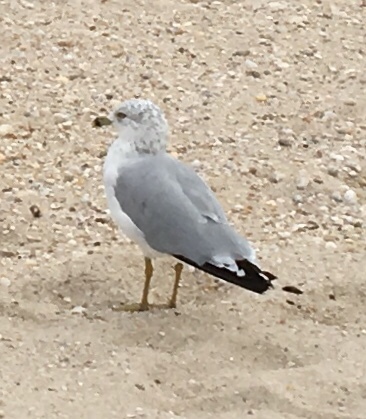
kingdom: Animalia
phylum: Chordata
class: Aves
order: Charadriiformes
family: Laridae
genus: Larus
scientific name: Larus delawarensis
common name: Ring-billed gull
